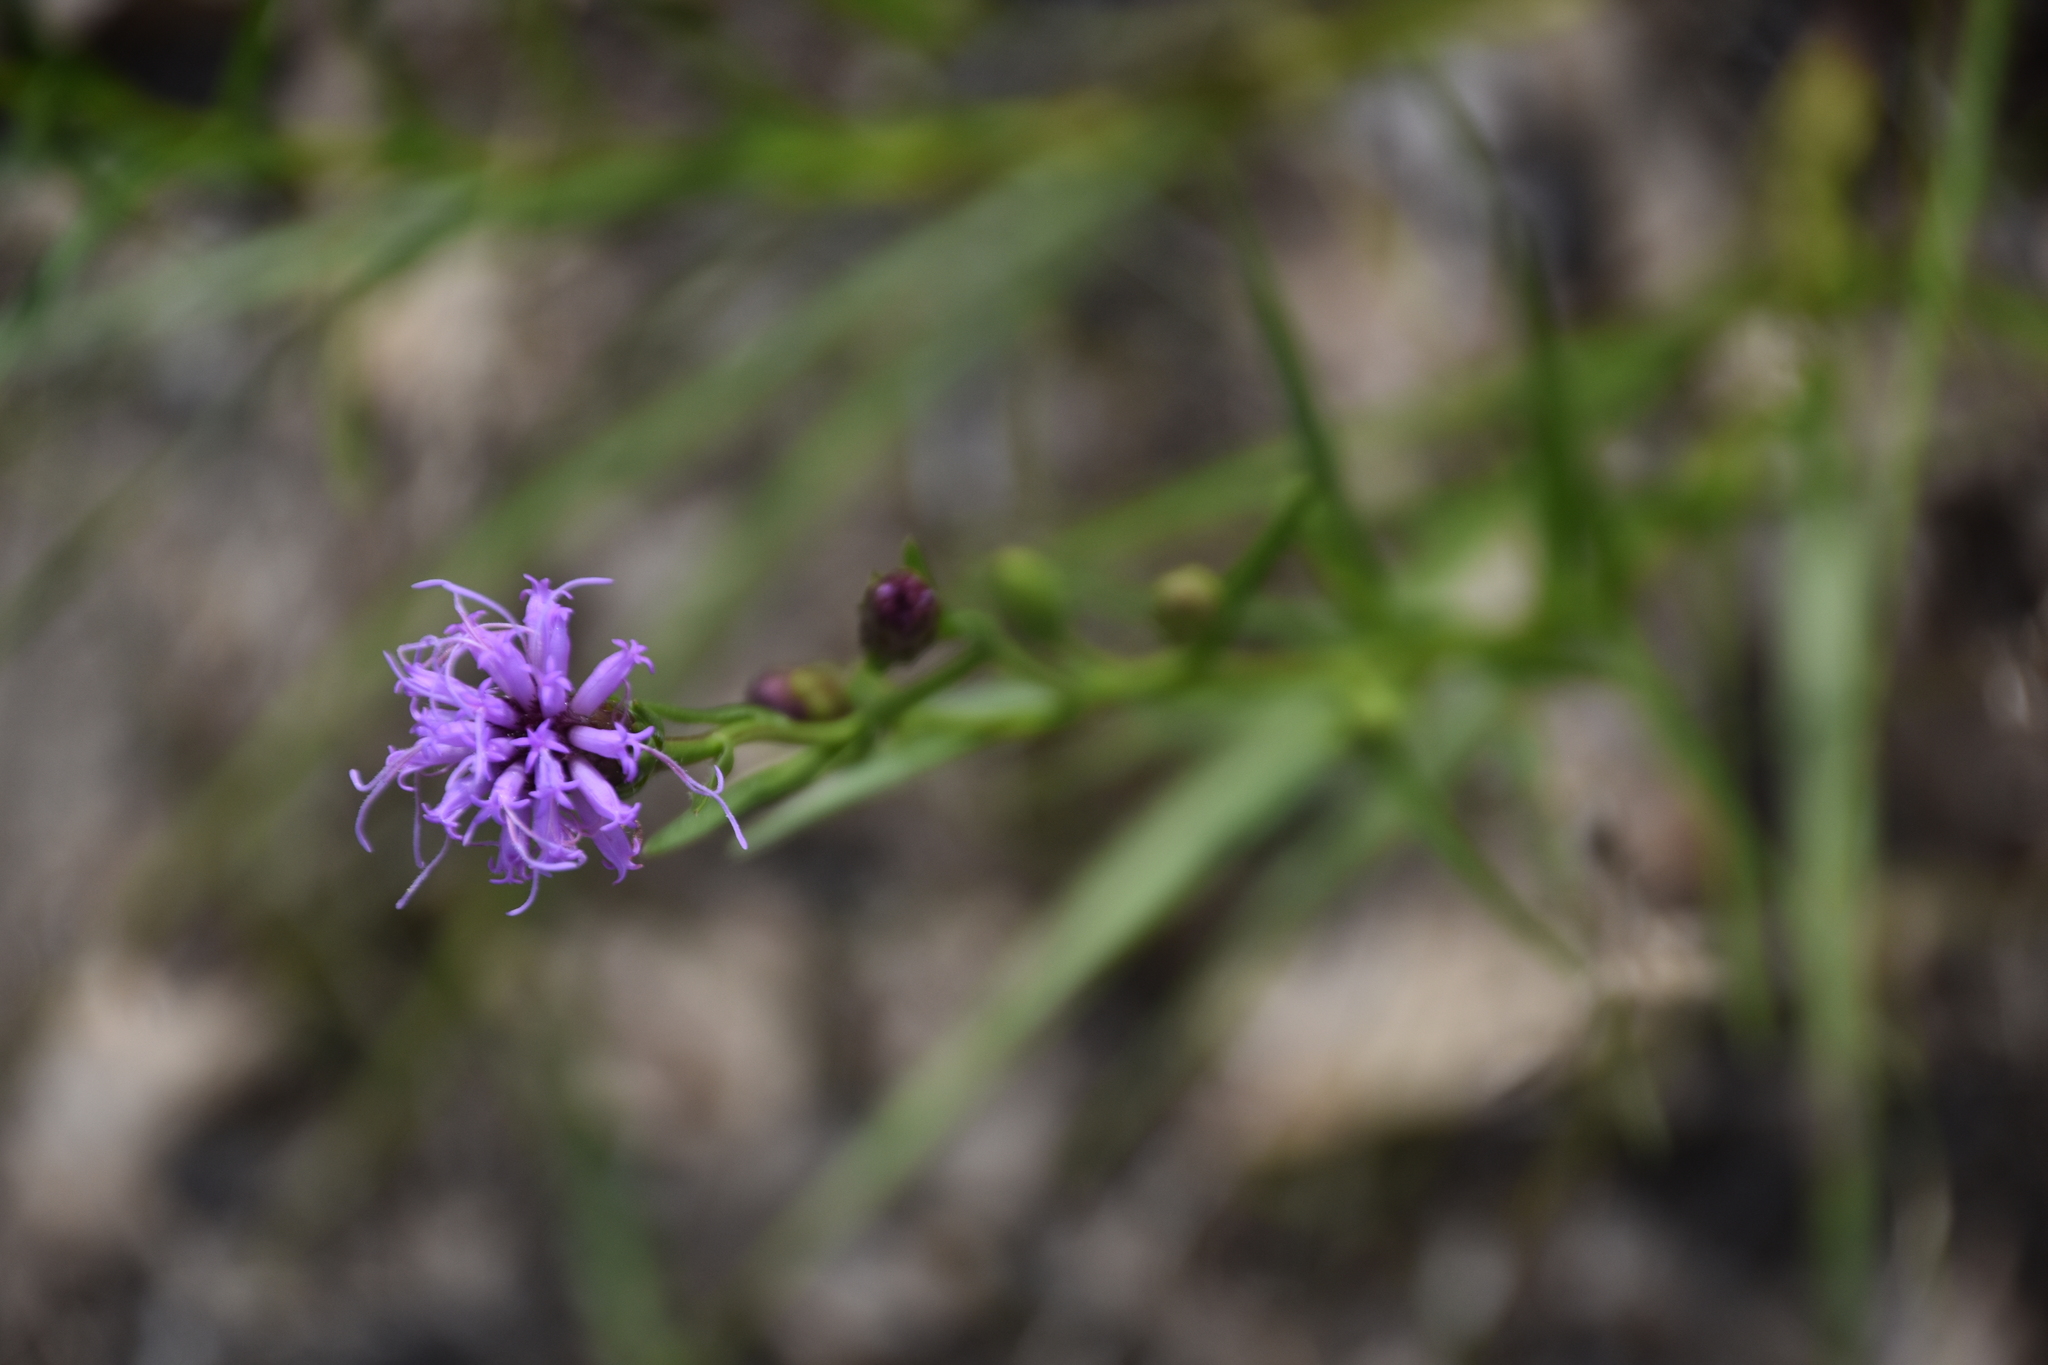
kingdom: Plantae
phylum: Tracheophyta
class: Magnoliopsida
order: Asterales
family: Asteraceae
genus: Liatris
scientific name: Liatris cylindracea
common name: Few-head blazingstar
